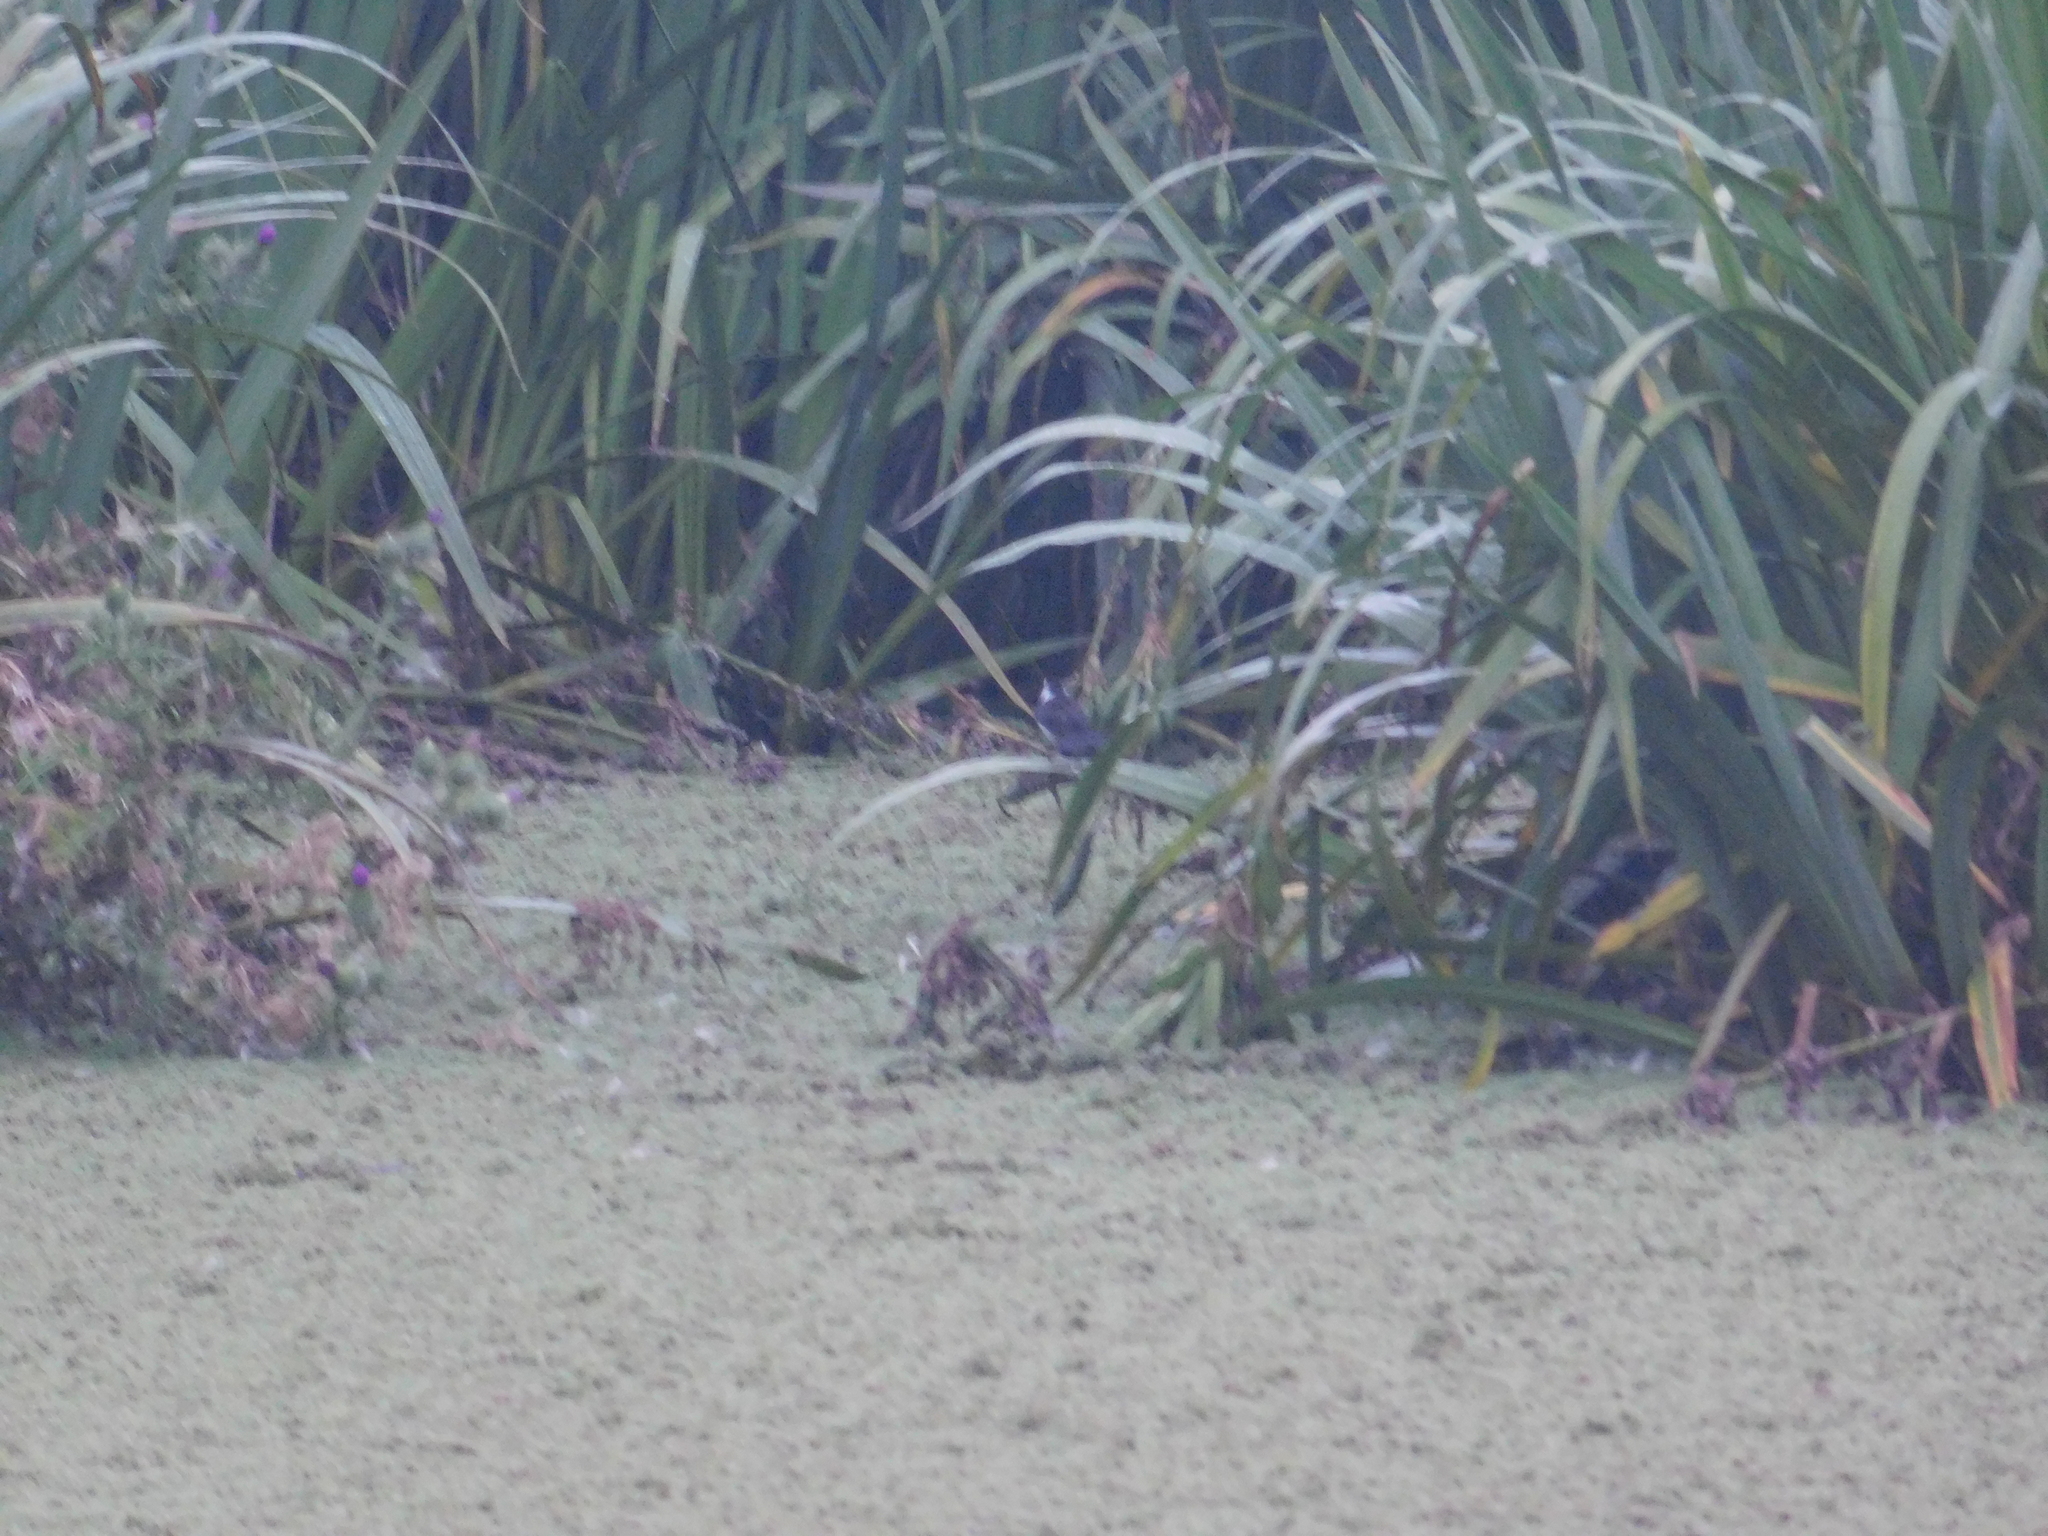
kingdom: Animalia
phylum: Chordata
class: Aves
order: Passeriformes
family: Tyrannidae
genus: Fluvicola
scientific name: Fluvicola pica
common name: Pied water-tyrant
